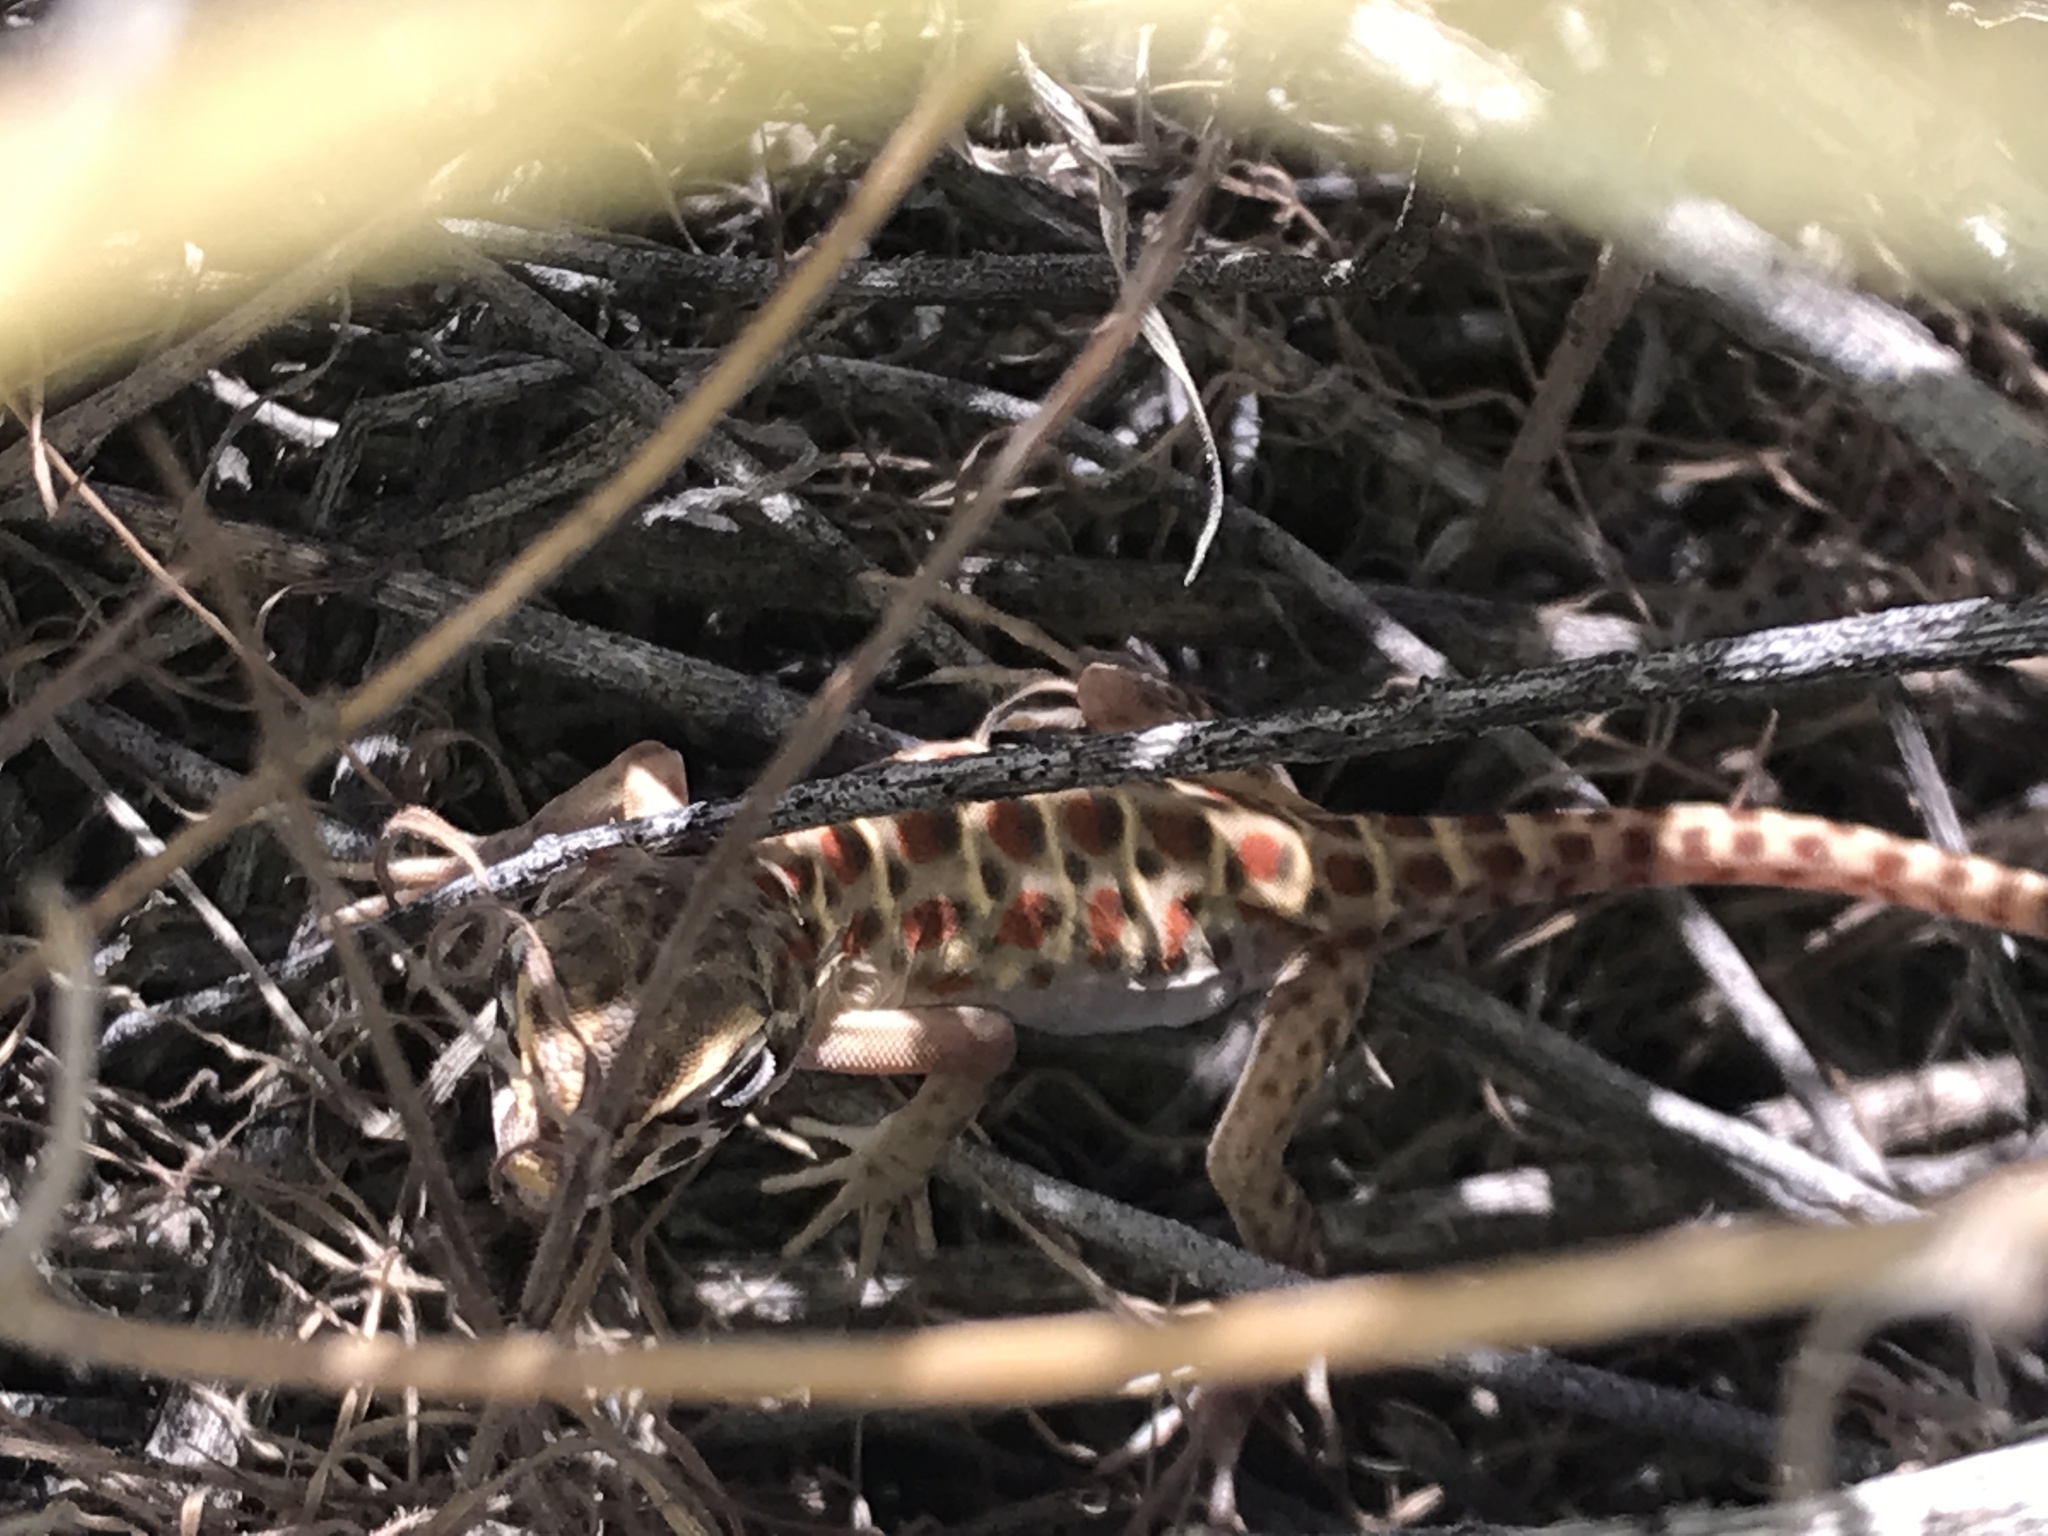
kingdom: Animalia
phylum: Chordata
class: Squamata
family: Crotaphytidae
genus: Gambelia
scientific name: Gambelia wislizenii
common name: Longnose leopard lizard
